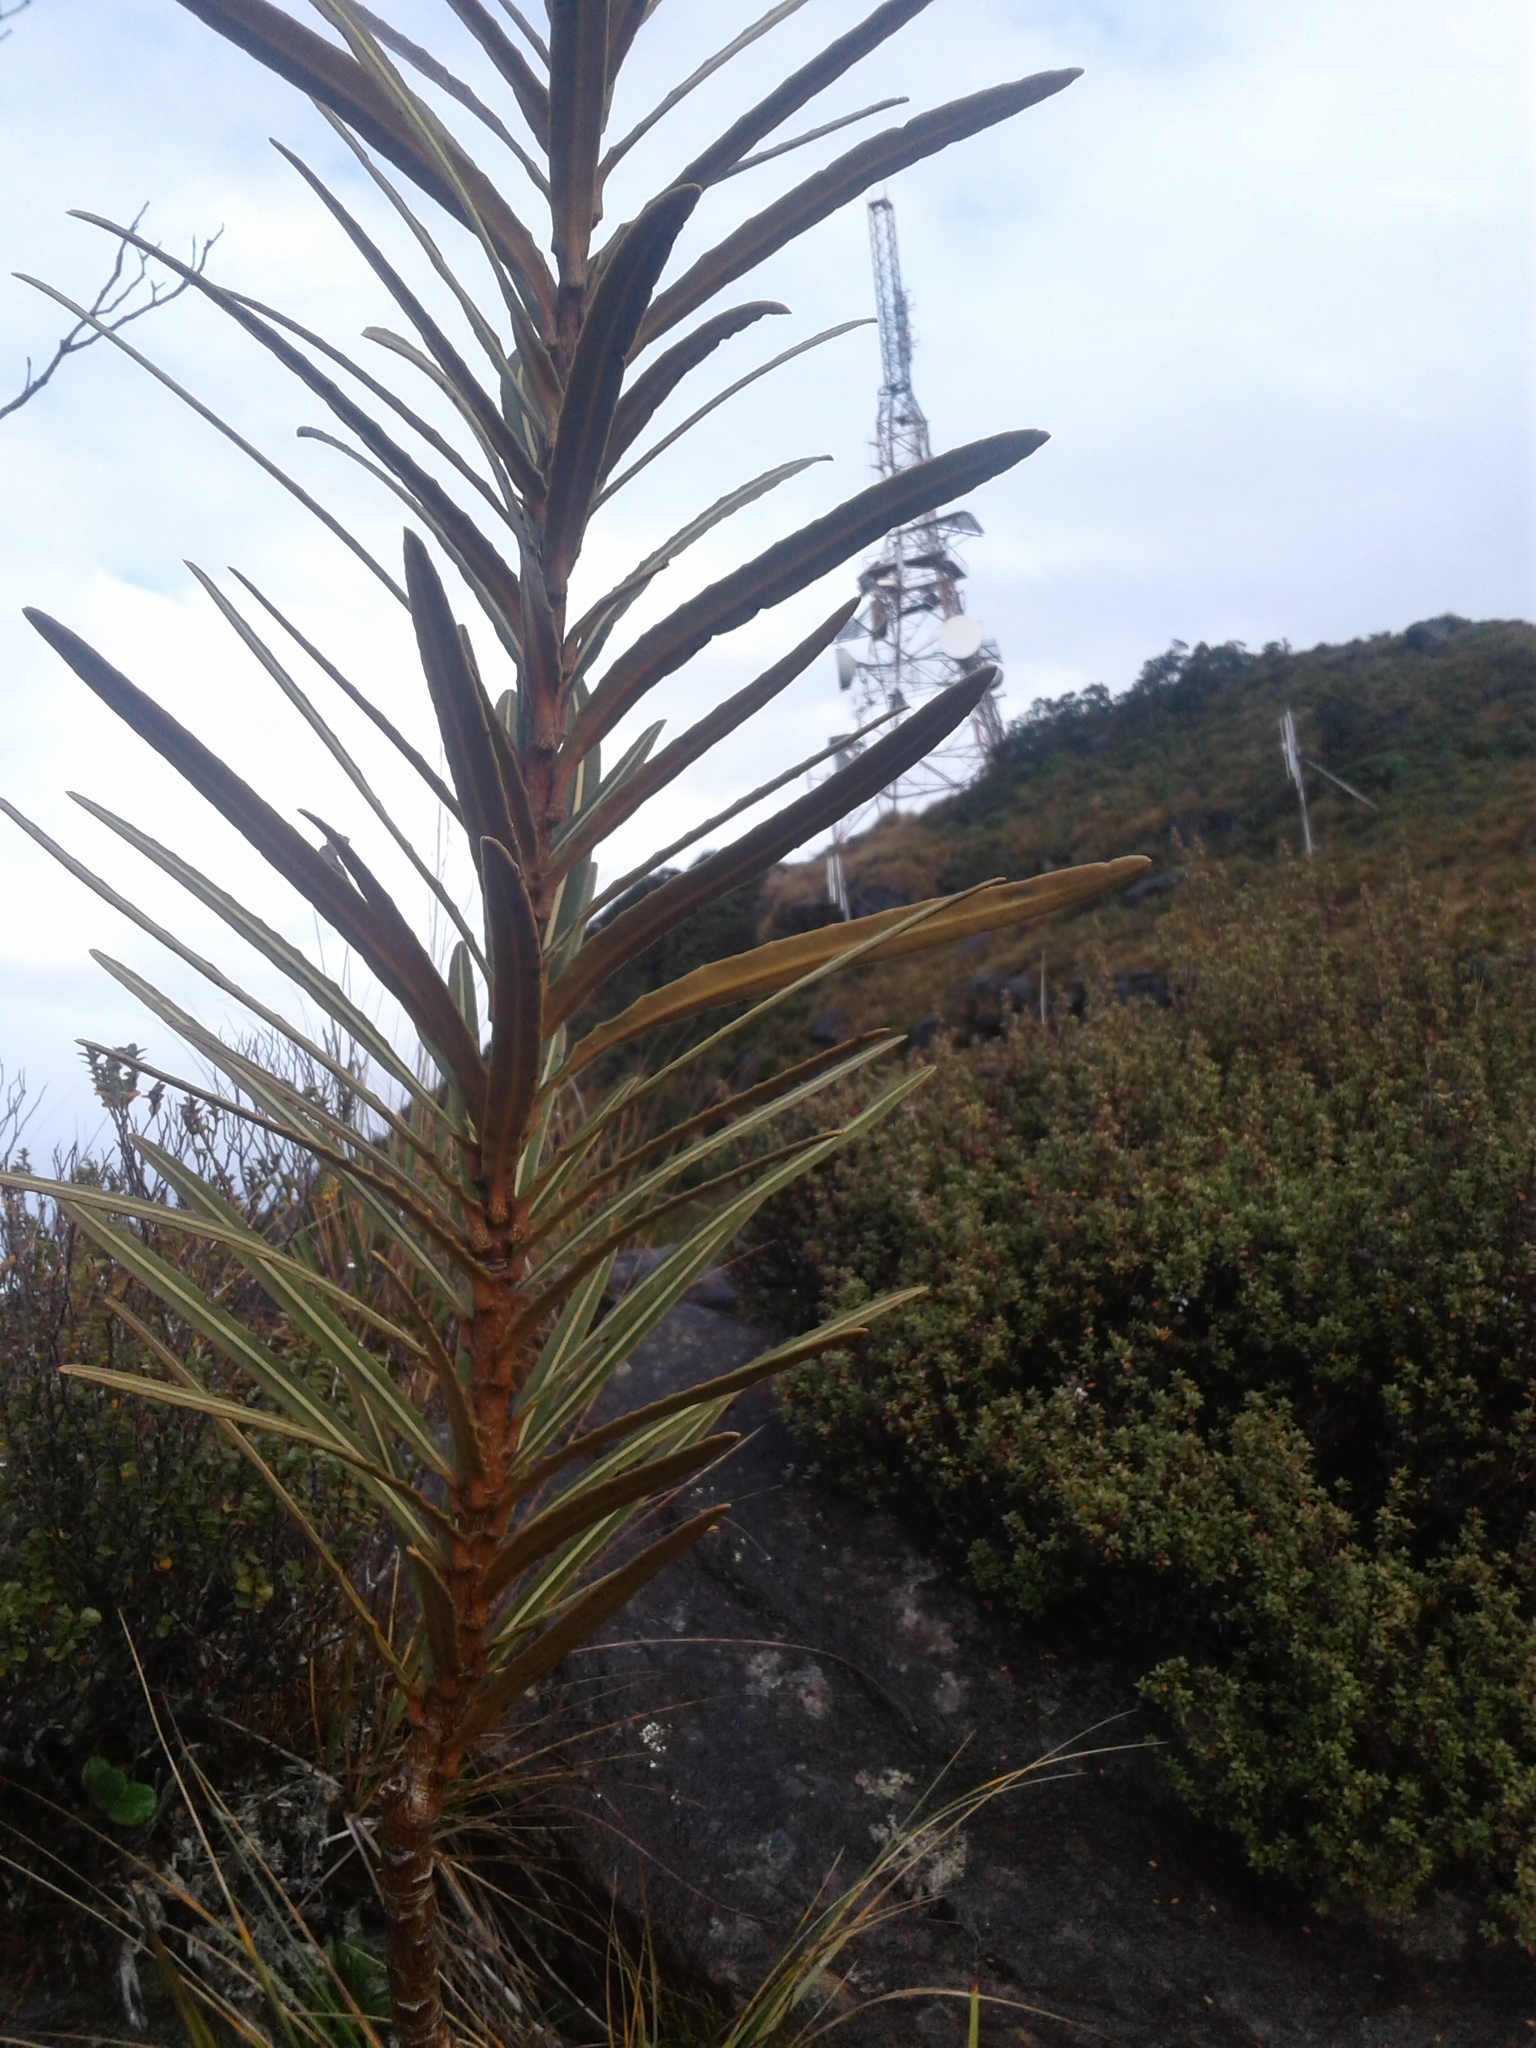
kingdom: Plantae
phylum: Tracheophyta
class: Magnoliopsida
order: Apiales
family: Araliaceae
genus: Pseudopanax
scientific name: Pseudopanax linearis
